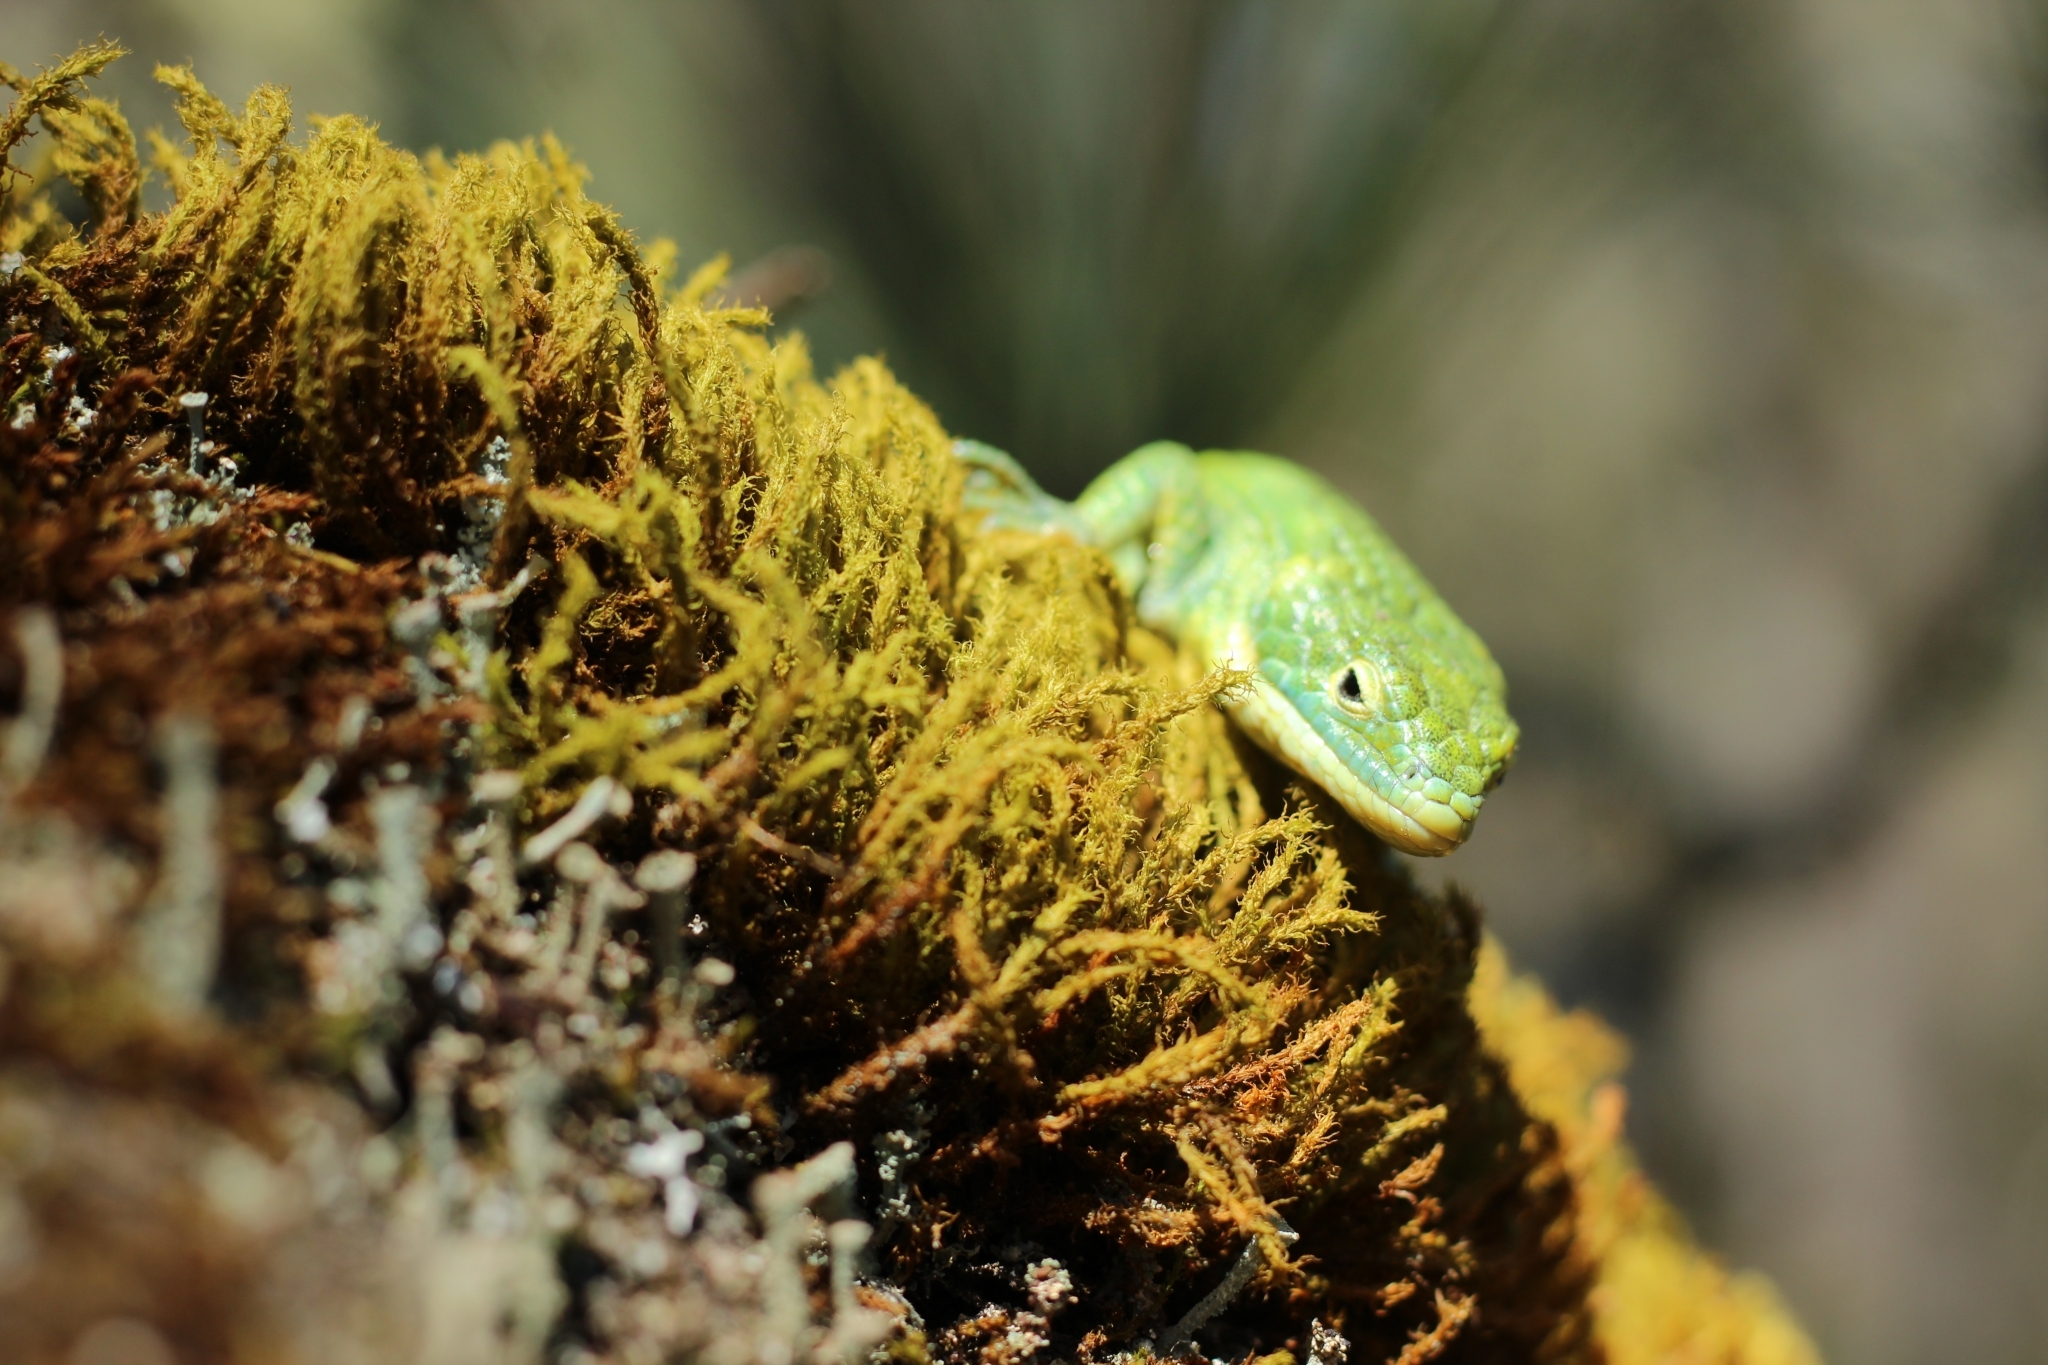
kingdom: Animalia
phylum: Chordata
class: Squamata
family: Anguidae
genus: Abronia
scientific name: Abronia graminea
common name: Terrestrial arboreal alligator lizard
